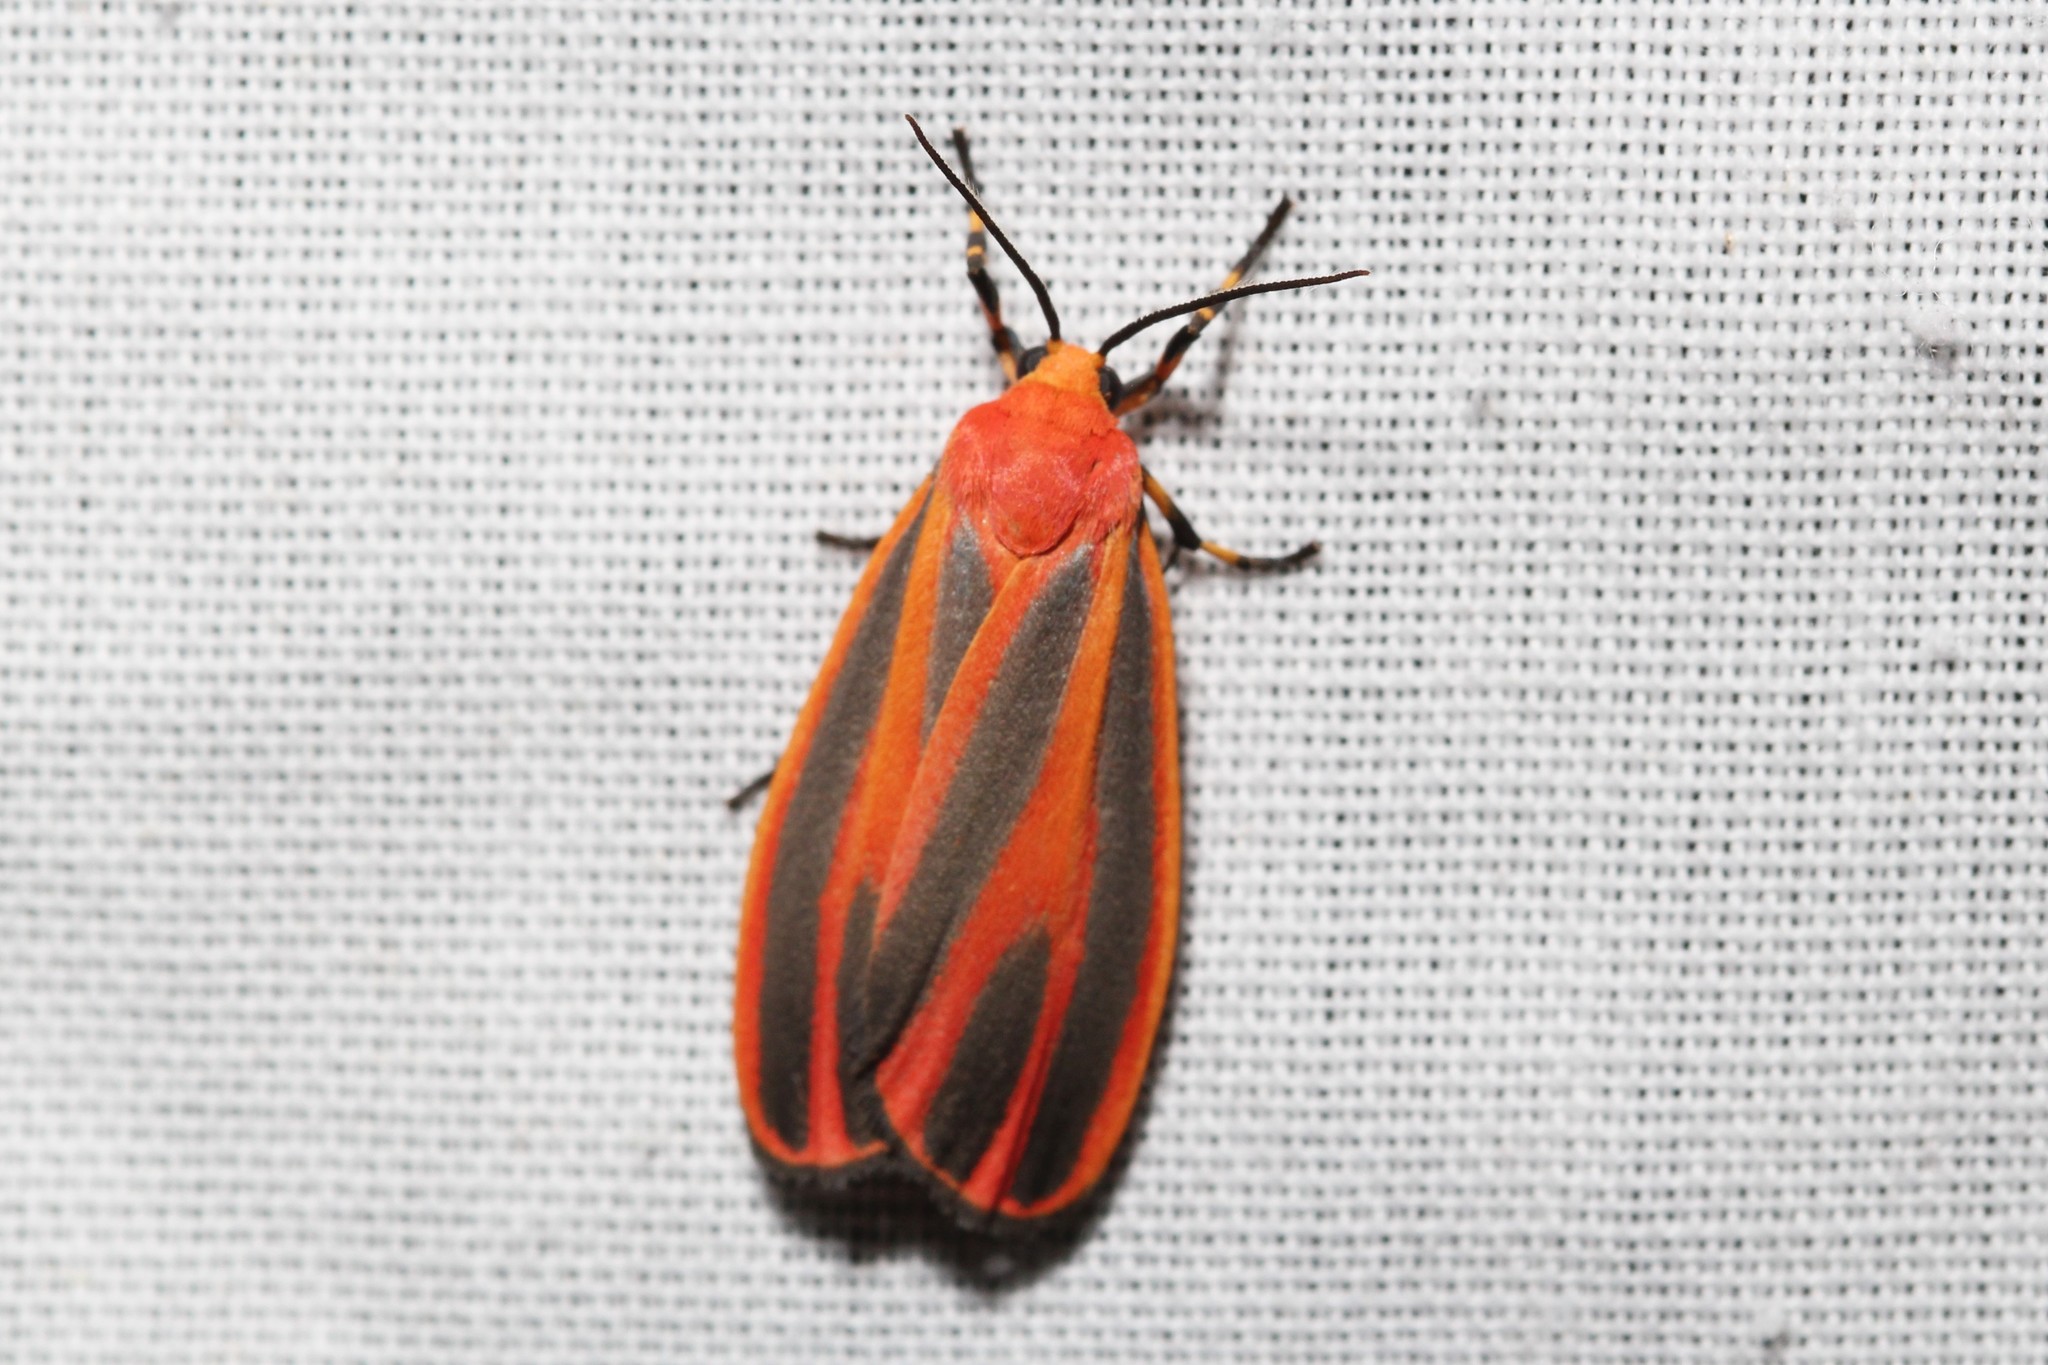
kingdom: Animalia
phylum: Arthropoda
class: Insecta
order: Lepidoptera
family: Erebidae
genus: Hypoprepia
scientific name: Hypoprepia miniata
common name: Scarlet-winged lichen moth
